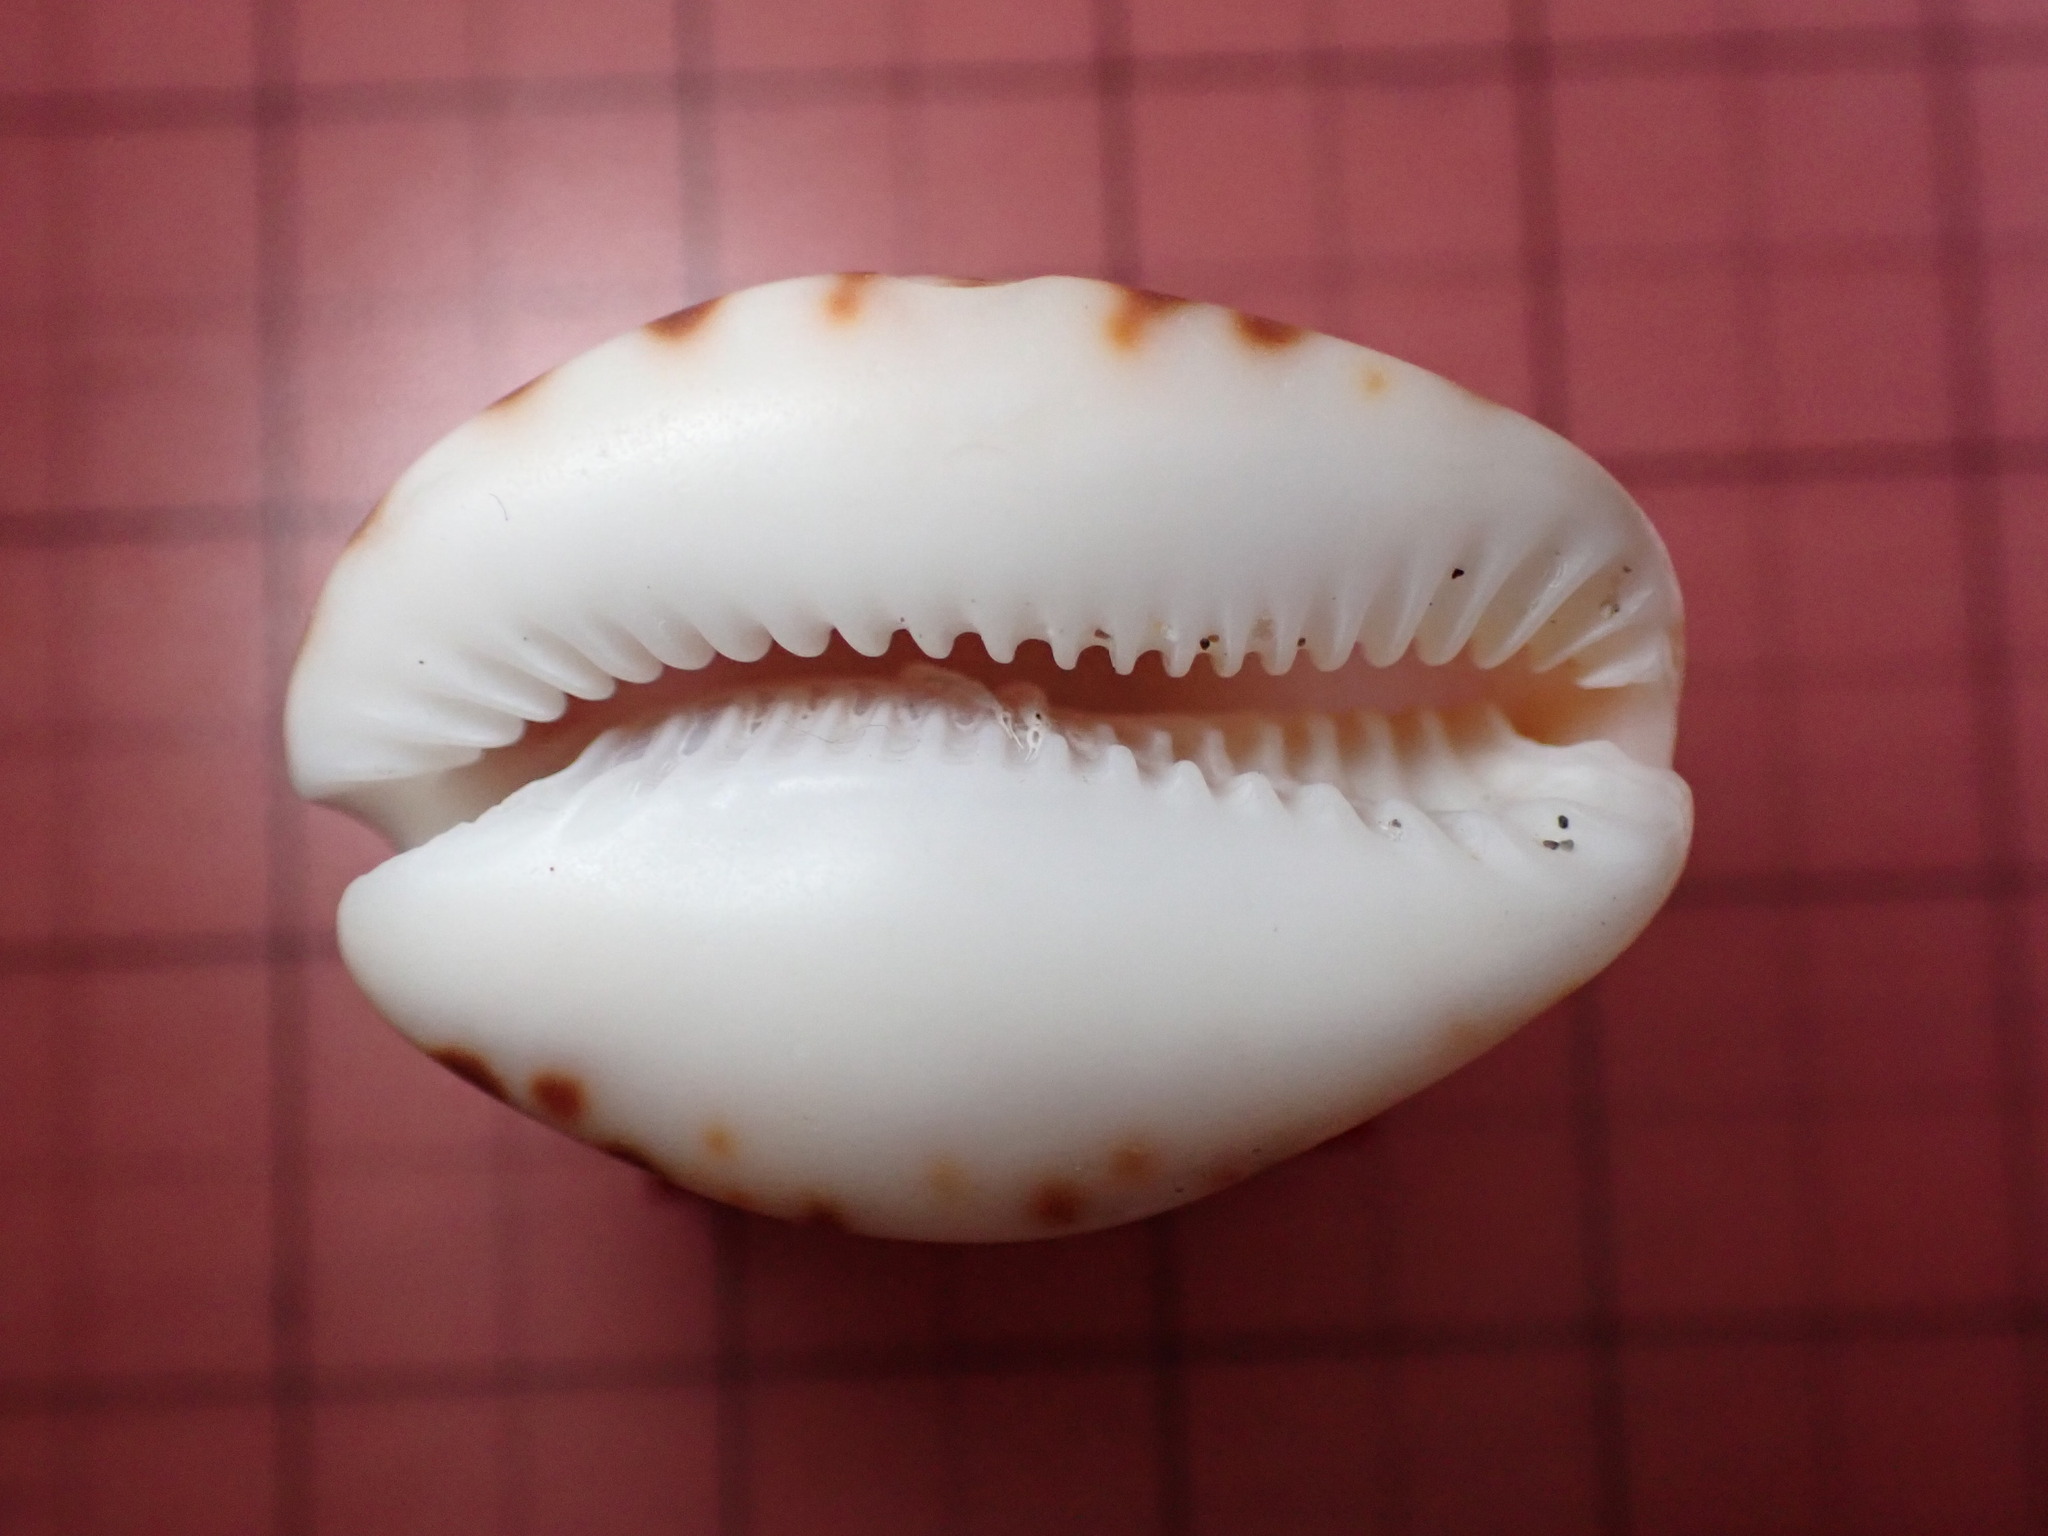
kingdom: Animalia
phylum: Mollusca
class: Gastropoda
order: Littorinimorpha
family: Cypraeidae
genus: Pseudozonaria
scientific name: Pseudozonaria arabicula
